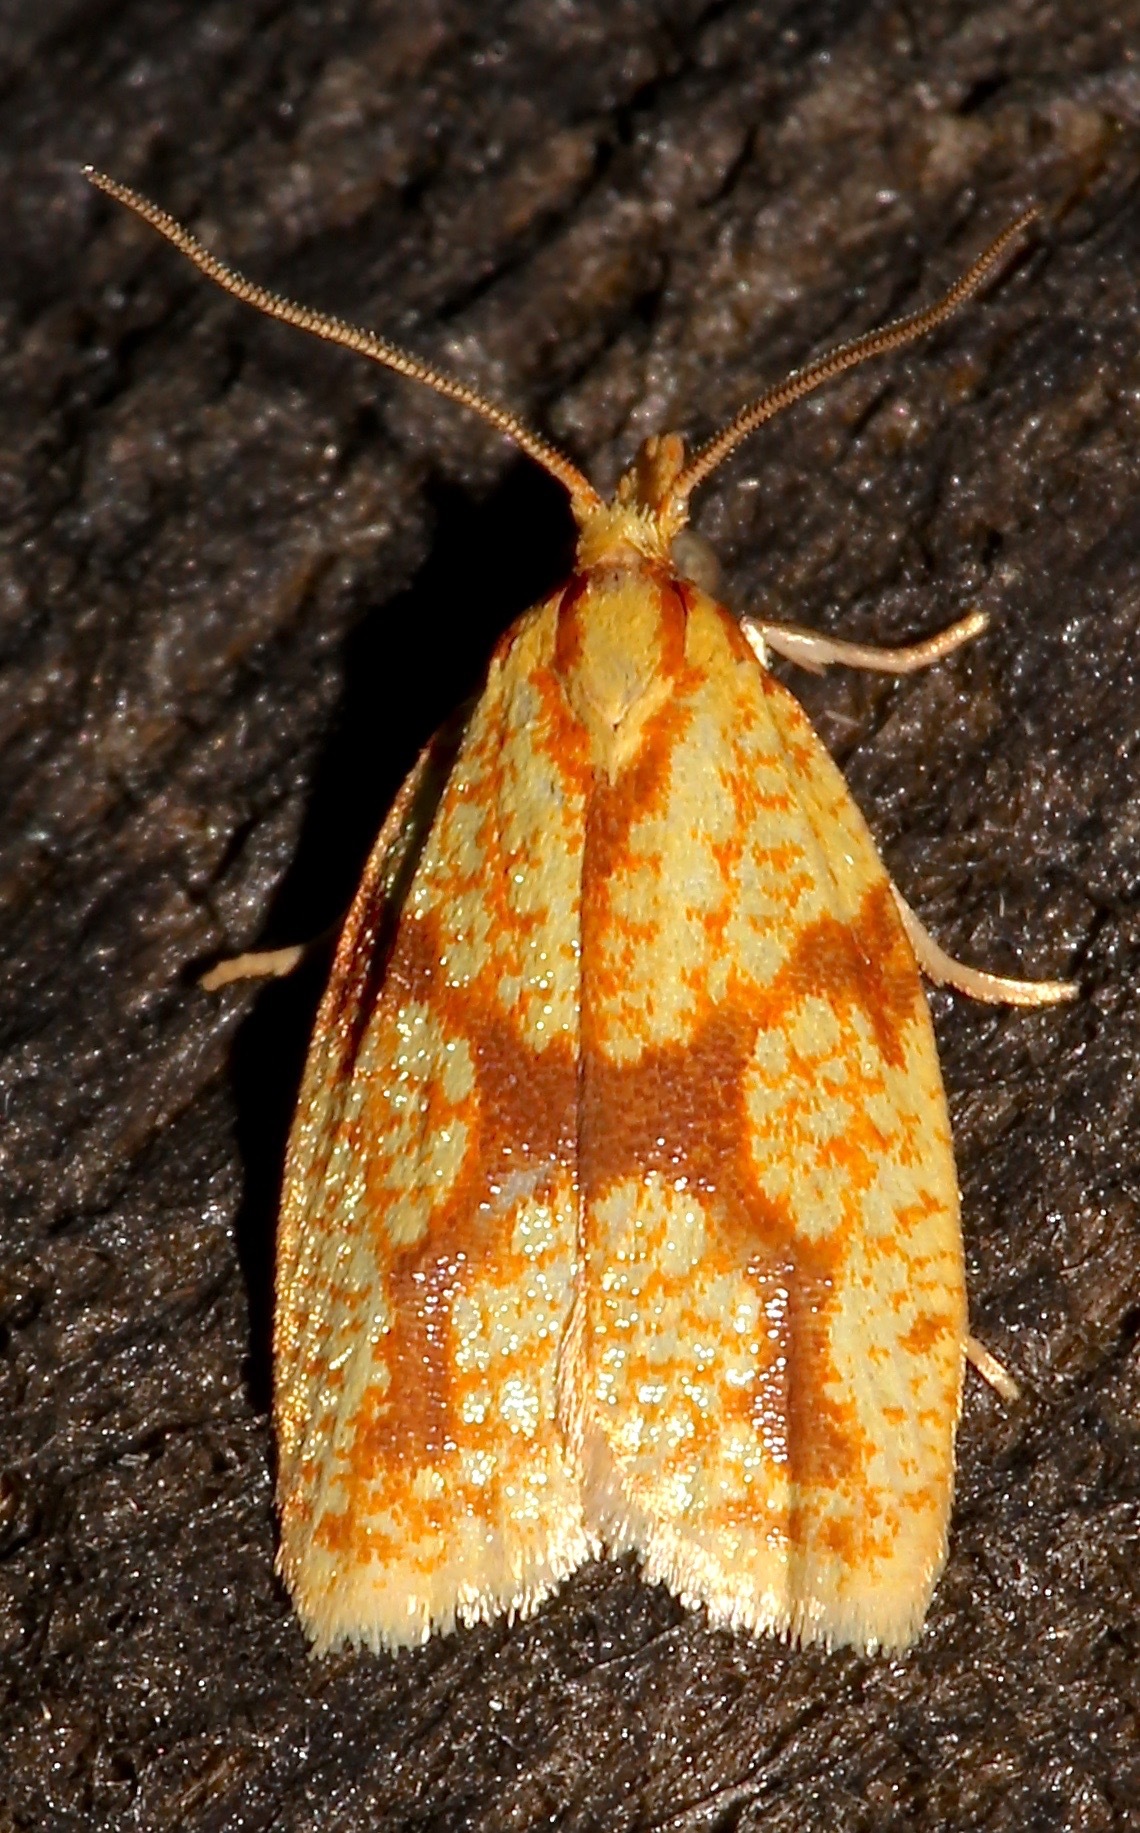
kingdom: Animalia
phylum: Arthropoda
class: Insecta
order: Lepidoptera
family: Tortricidae
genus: Sparganothis
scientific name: Sparganothis sulfureana
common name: Sparganothis fruitworm moth
